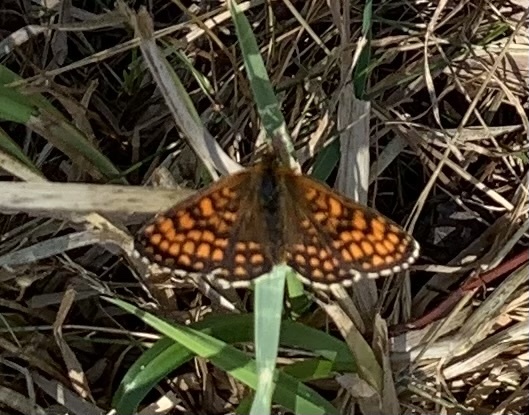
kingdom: Animalia
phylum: Arthropoda
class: Insecta
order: Lepidoptera
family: Nymphalidae
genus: Melitaea
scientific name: Melitaea athalia
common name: Heath fritillary
